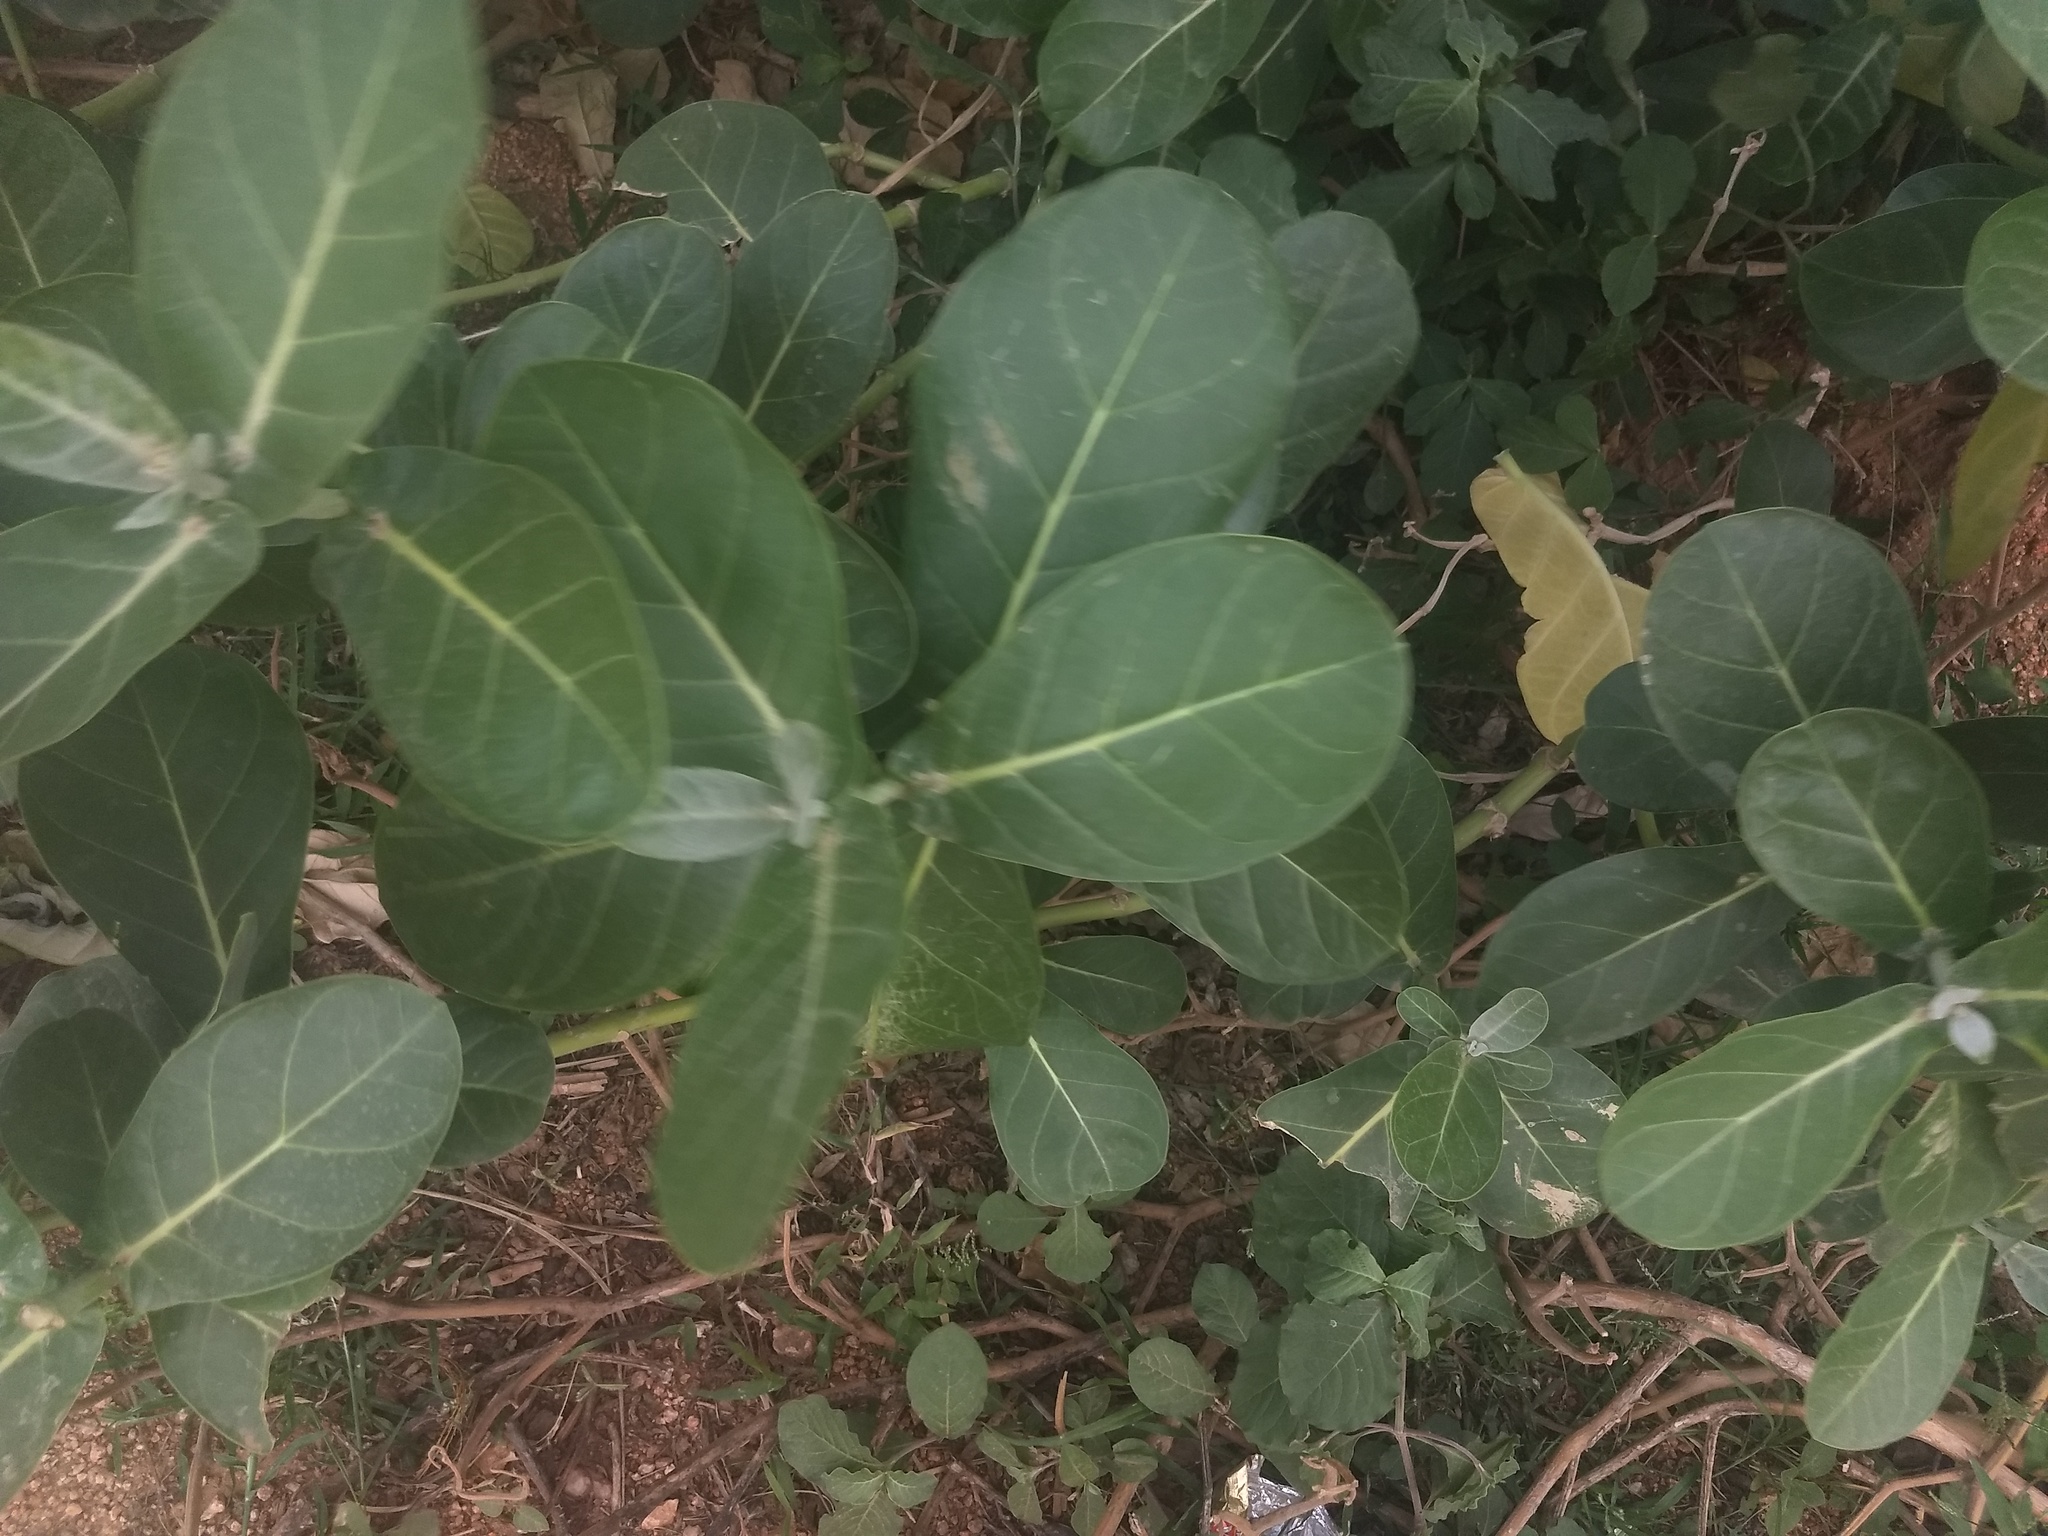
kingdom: Plantae
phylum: Tracheophyta
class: Magnoliopsida
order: Gentianales
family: Apocynaceae
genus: Calotropis
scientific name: Calotropis gigantea
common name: Crown flower
